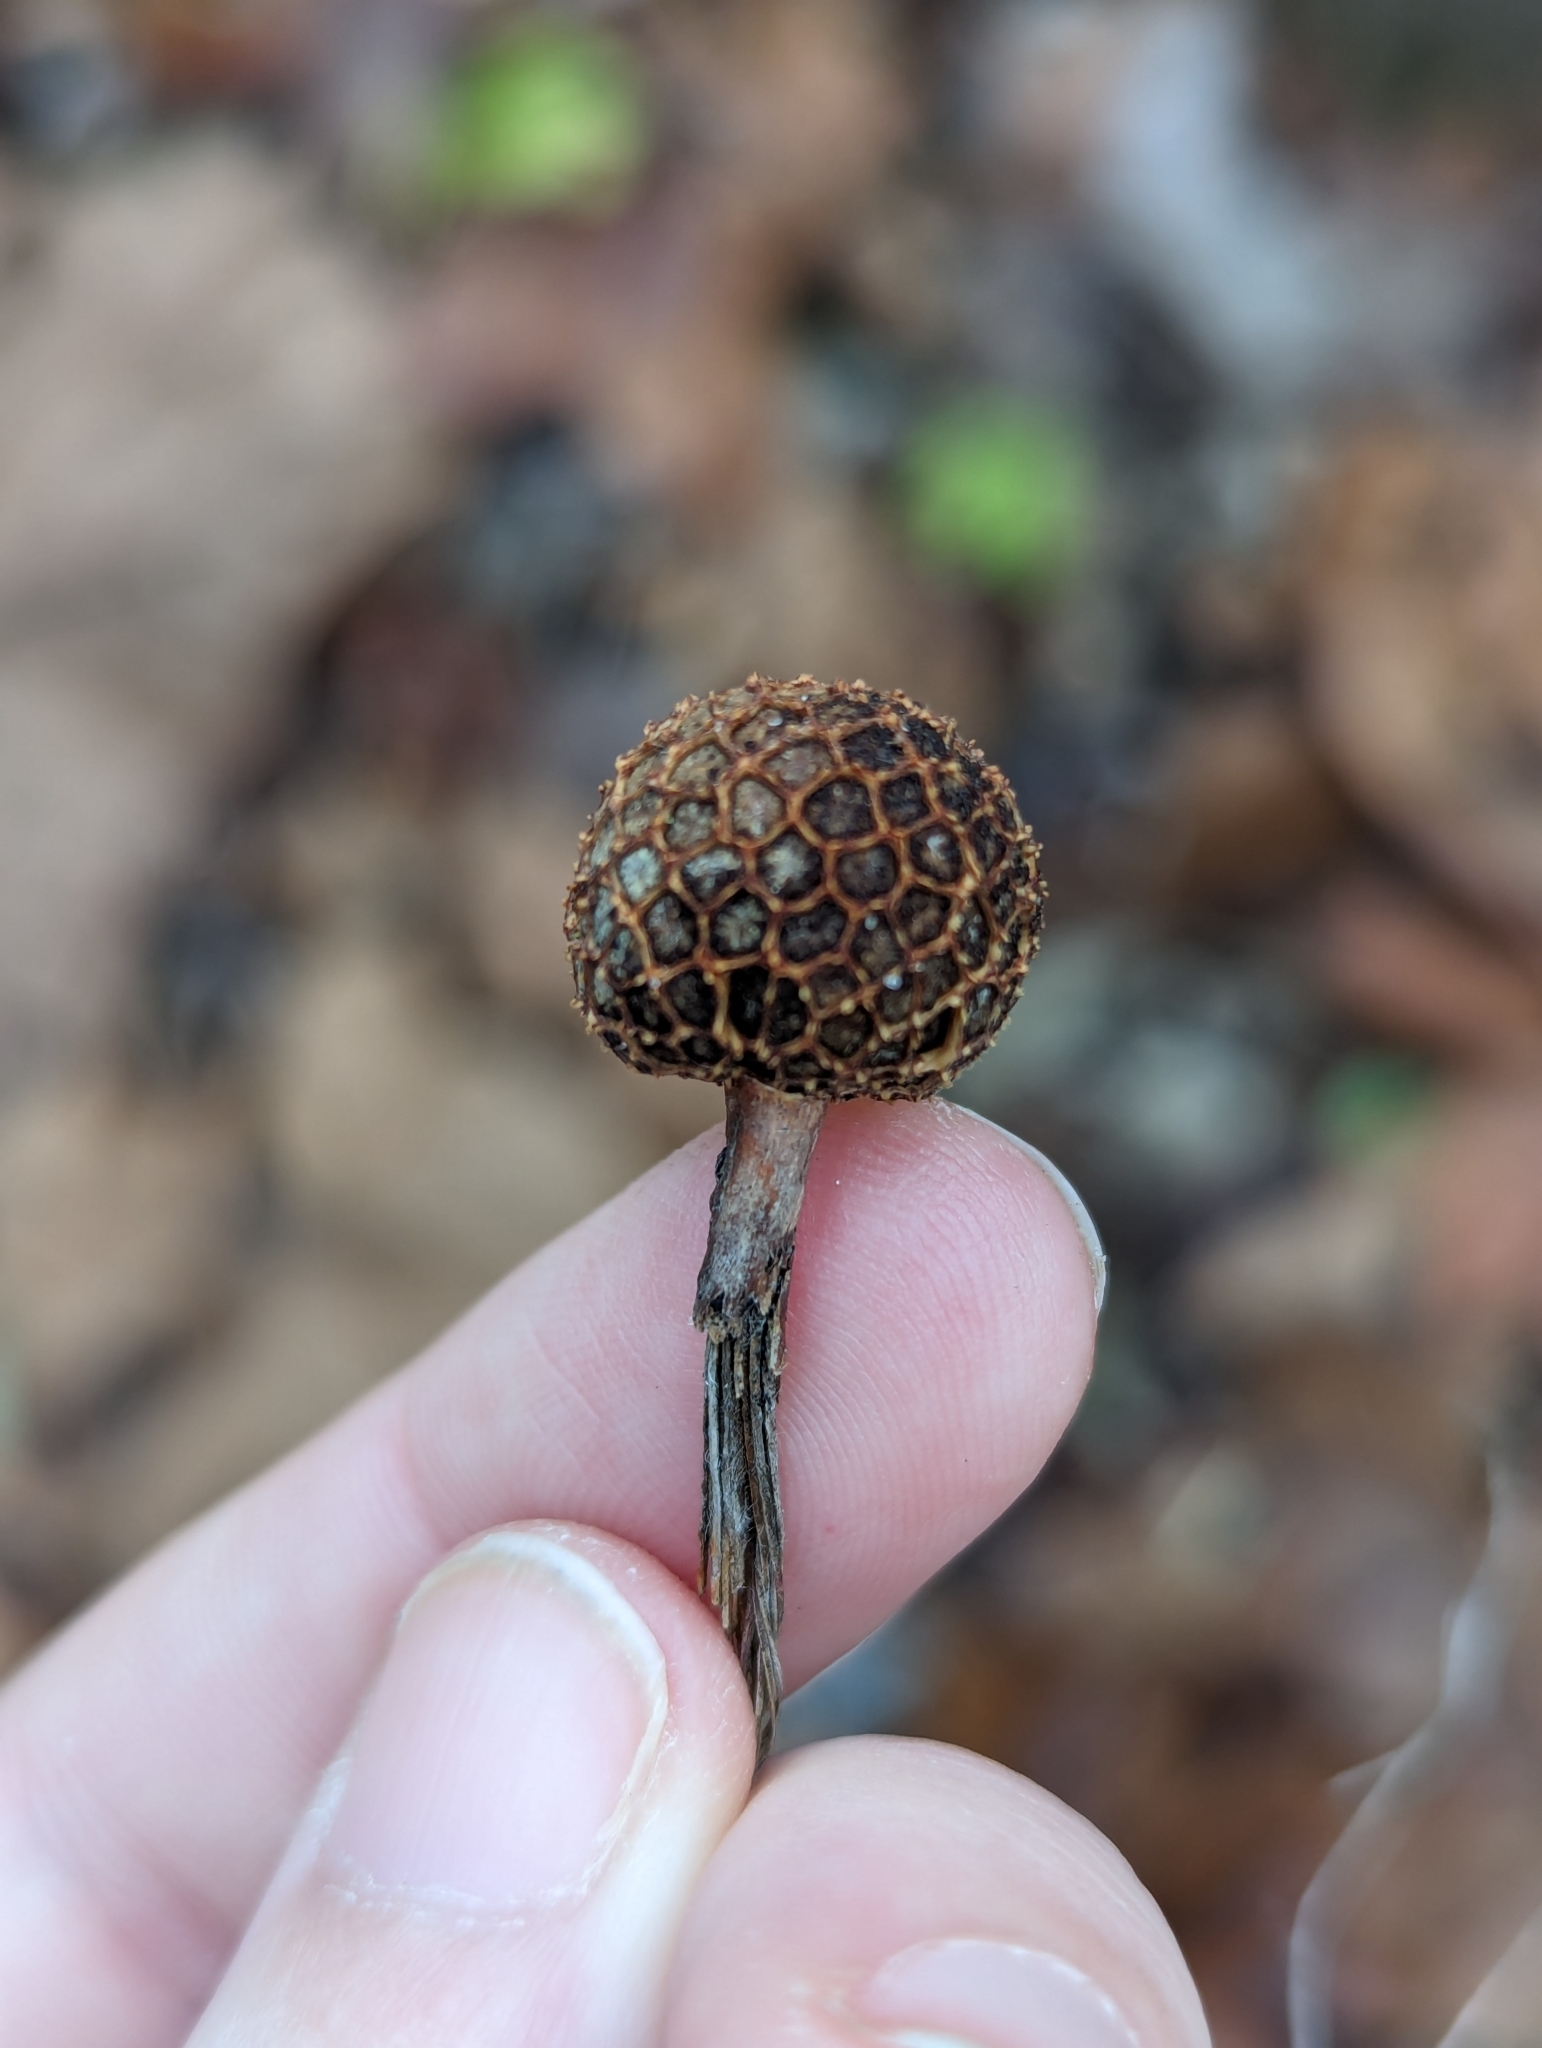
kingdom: Plantae
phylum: Tracheophyta
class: Magnoliopsida
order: Proteales
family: Platanaceae
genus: Platanus
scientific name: Platanus occidentalis
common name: American sycamore
